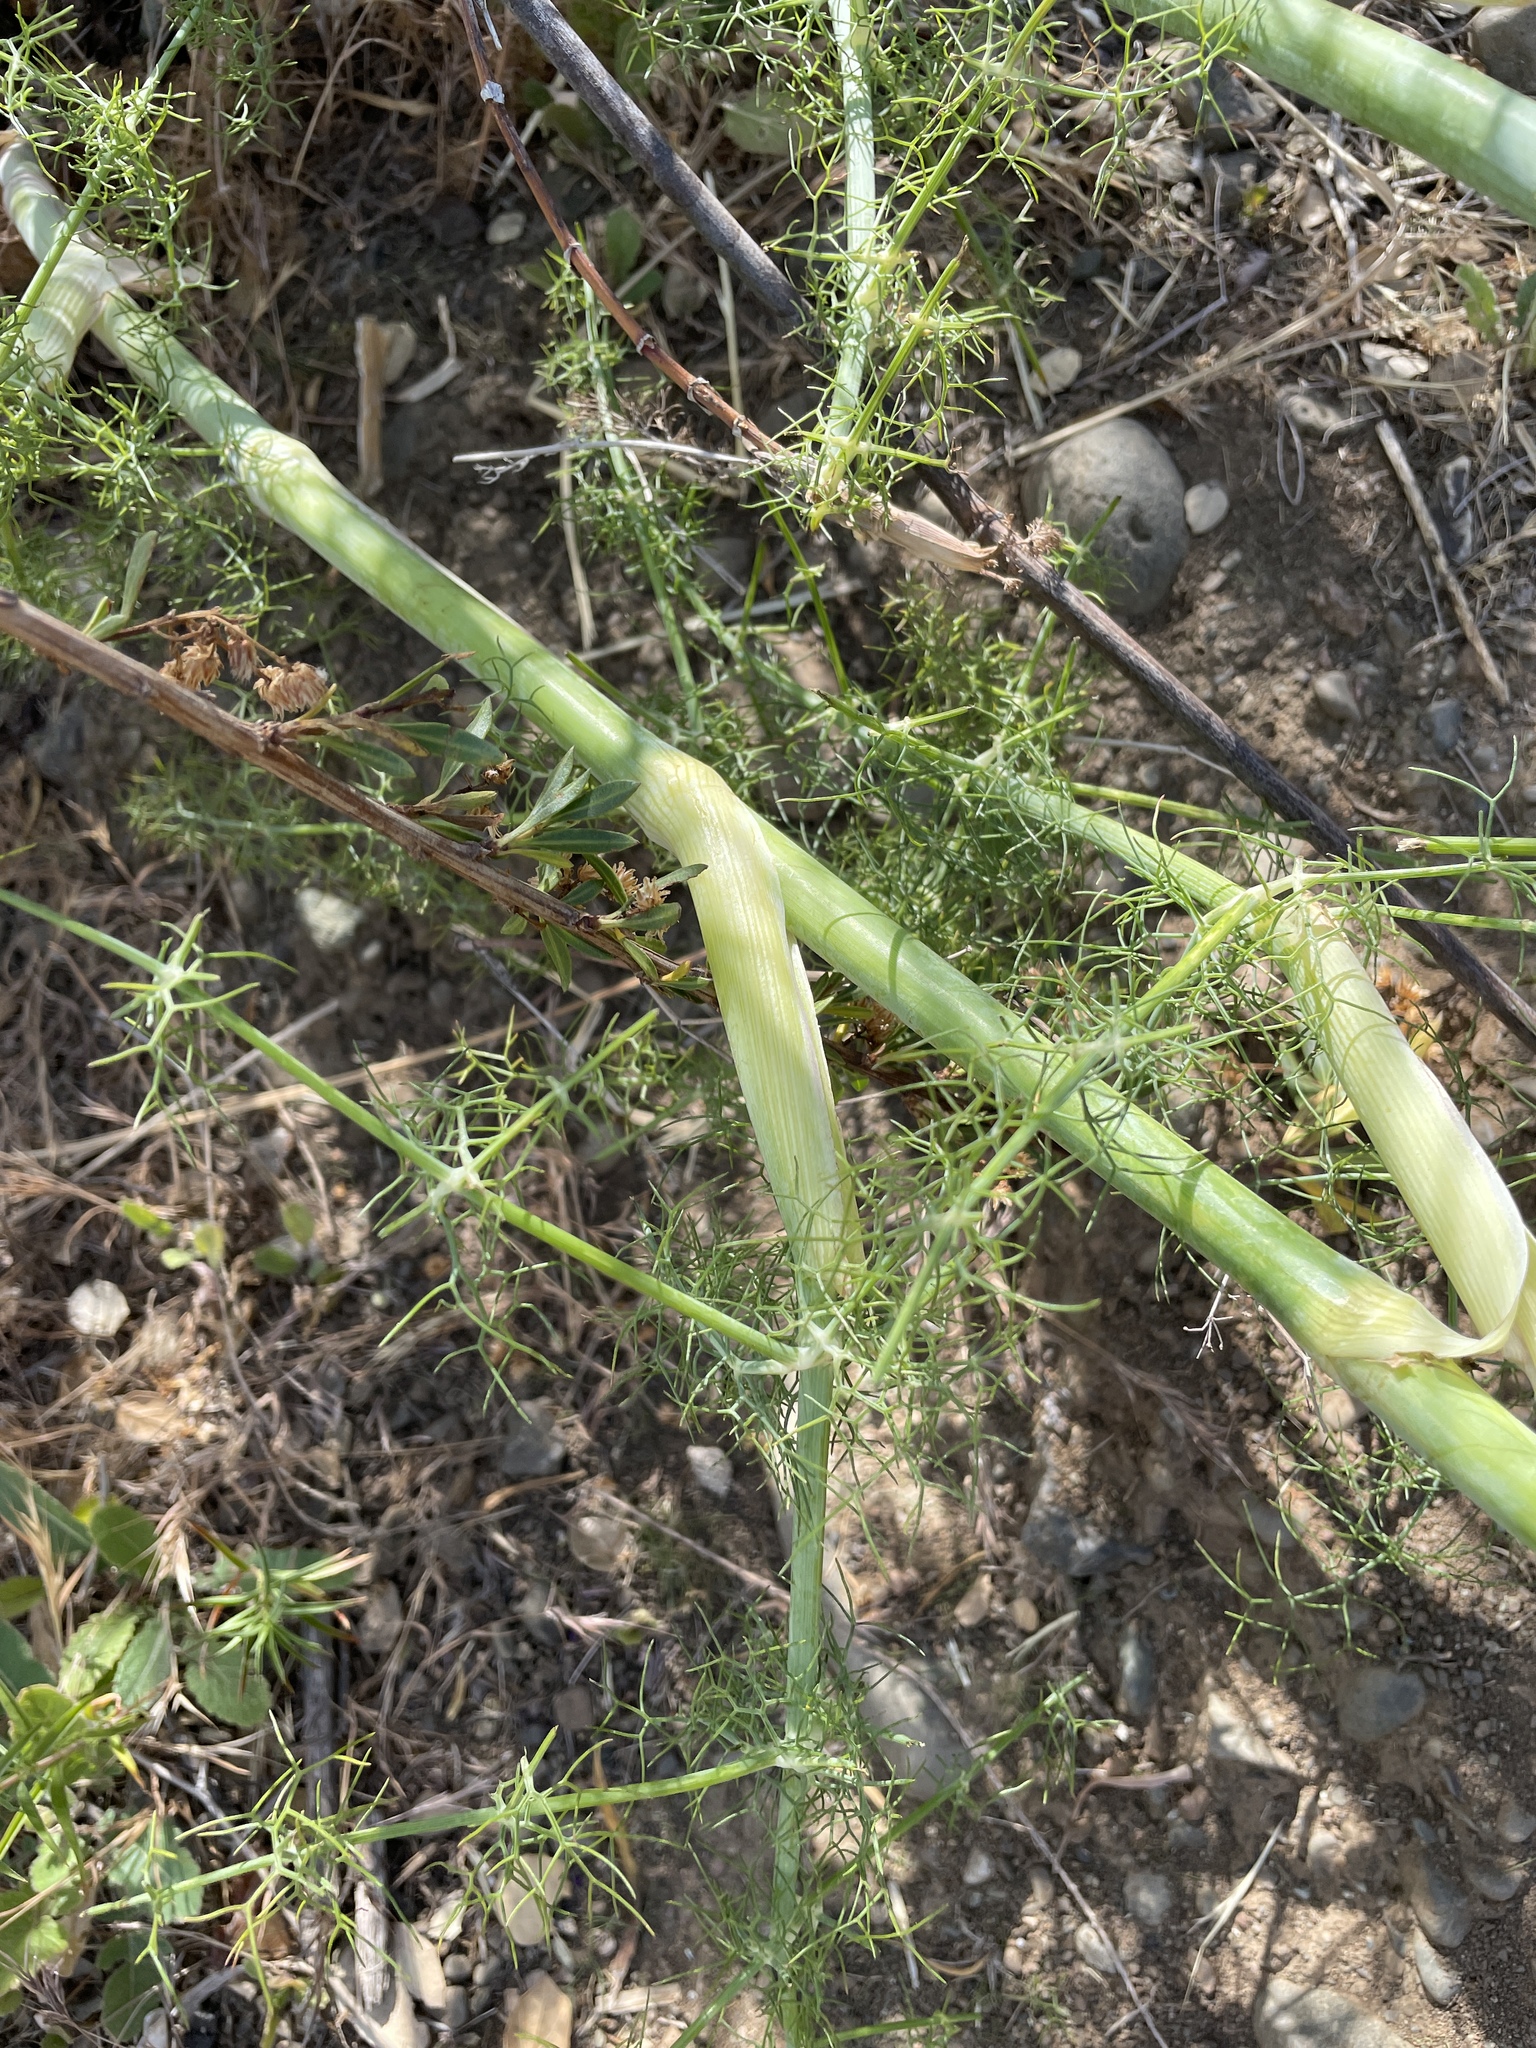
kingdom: Plantae
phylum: Tracheophyta
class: Magnoliopsida
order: Apiales
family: Apiaceae
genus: Foeniculum
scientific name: Foeniculum vulgare
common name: Fennel
